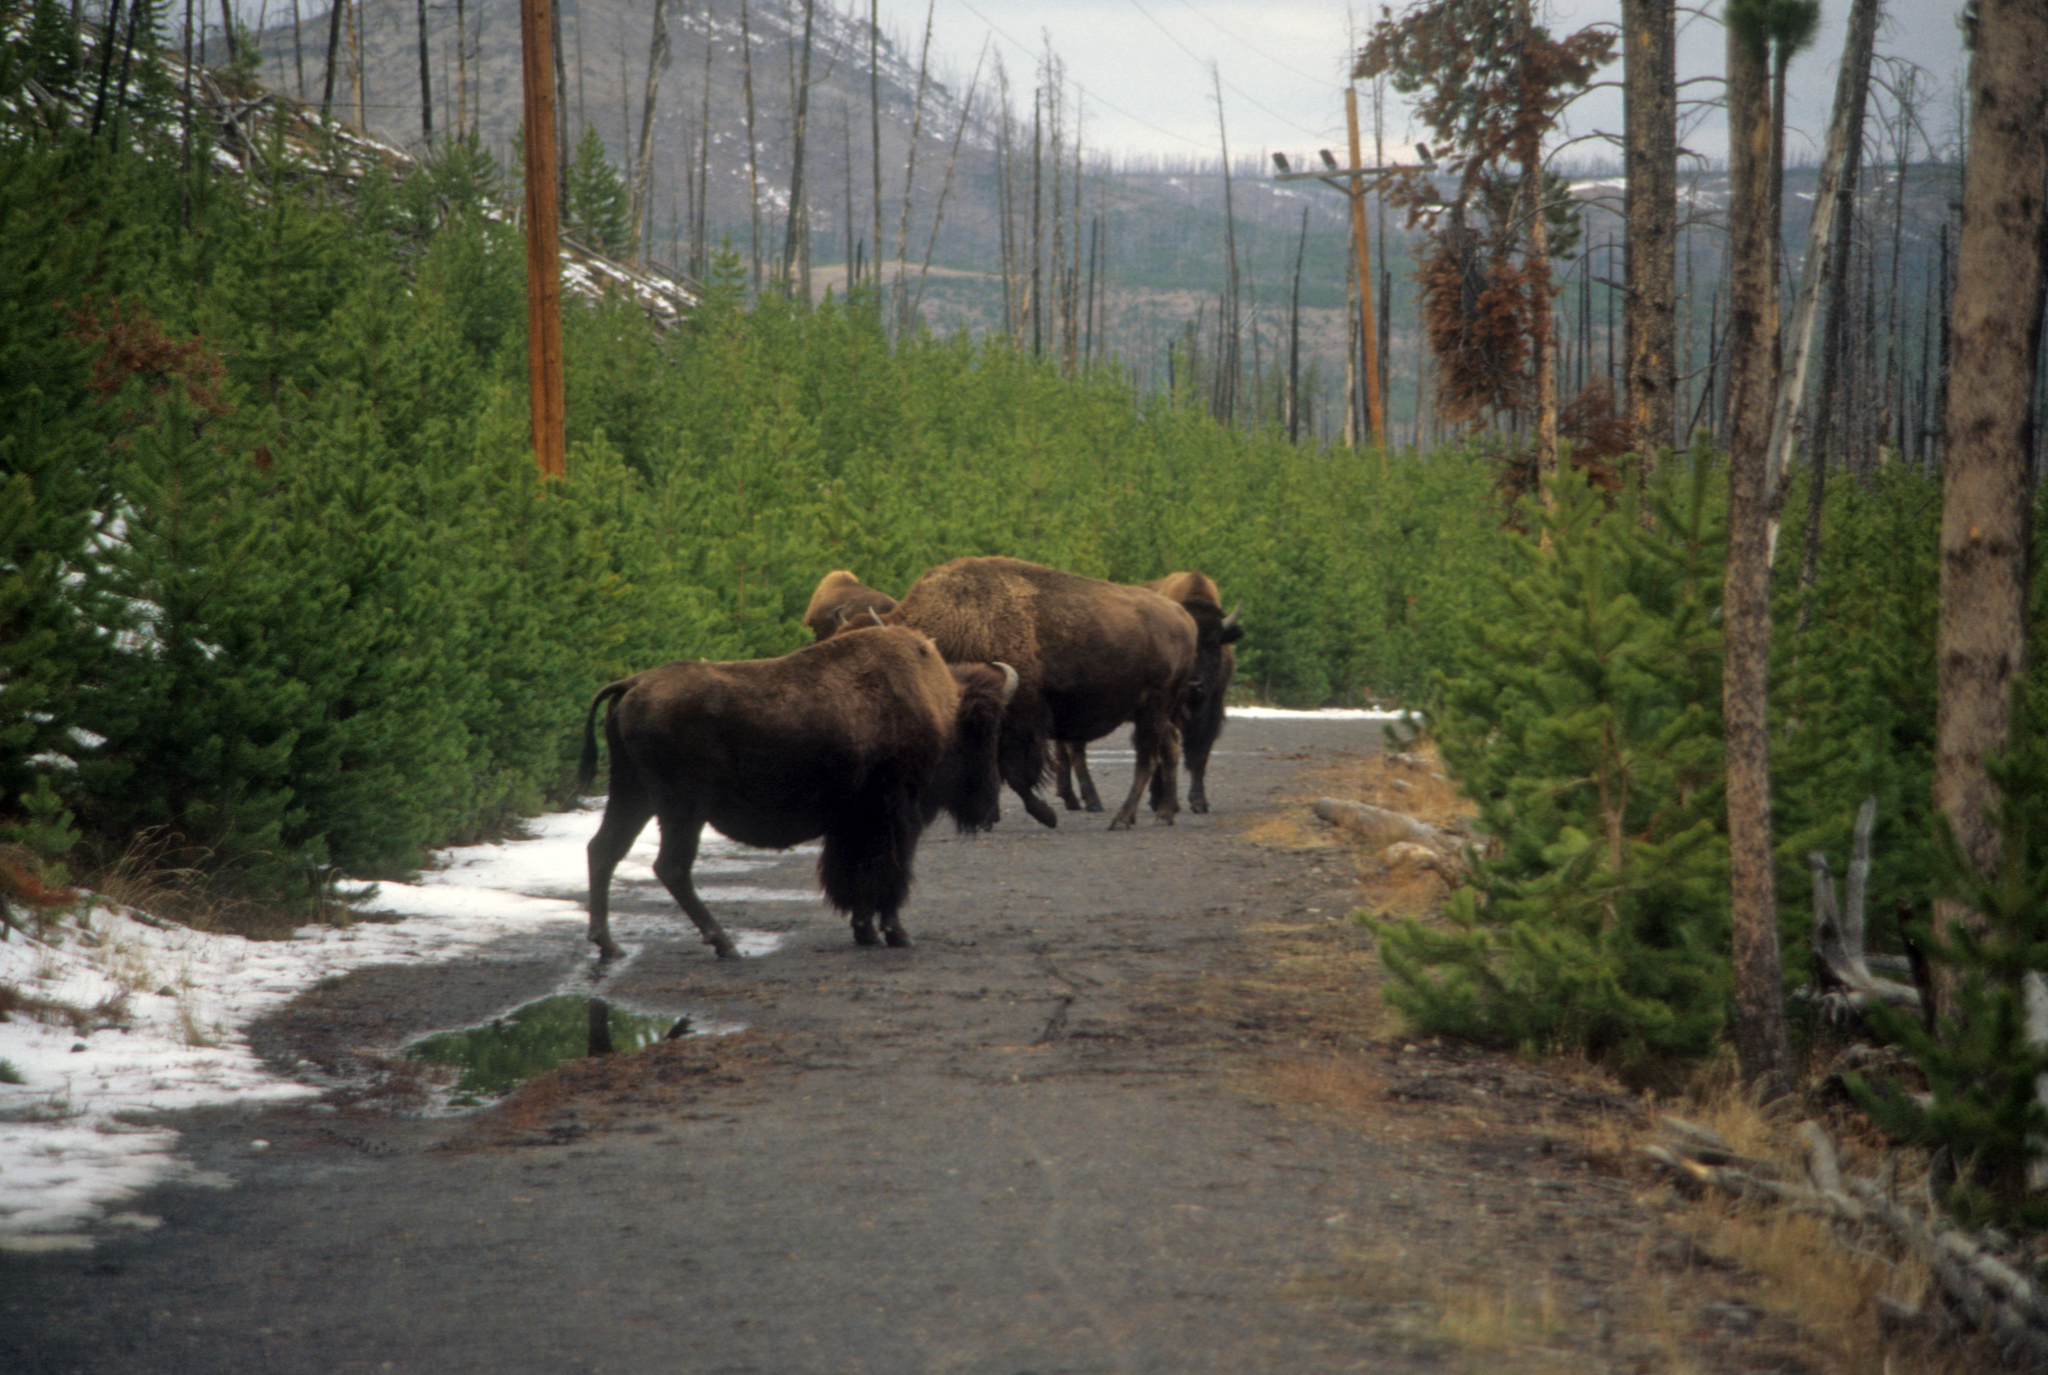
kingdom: Animalia
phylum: Chordata
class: Mammalia
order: Artiodactyla
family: Bovidae
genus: Bison
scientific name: Bison bison
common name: American bison
